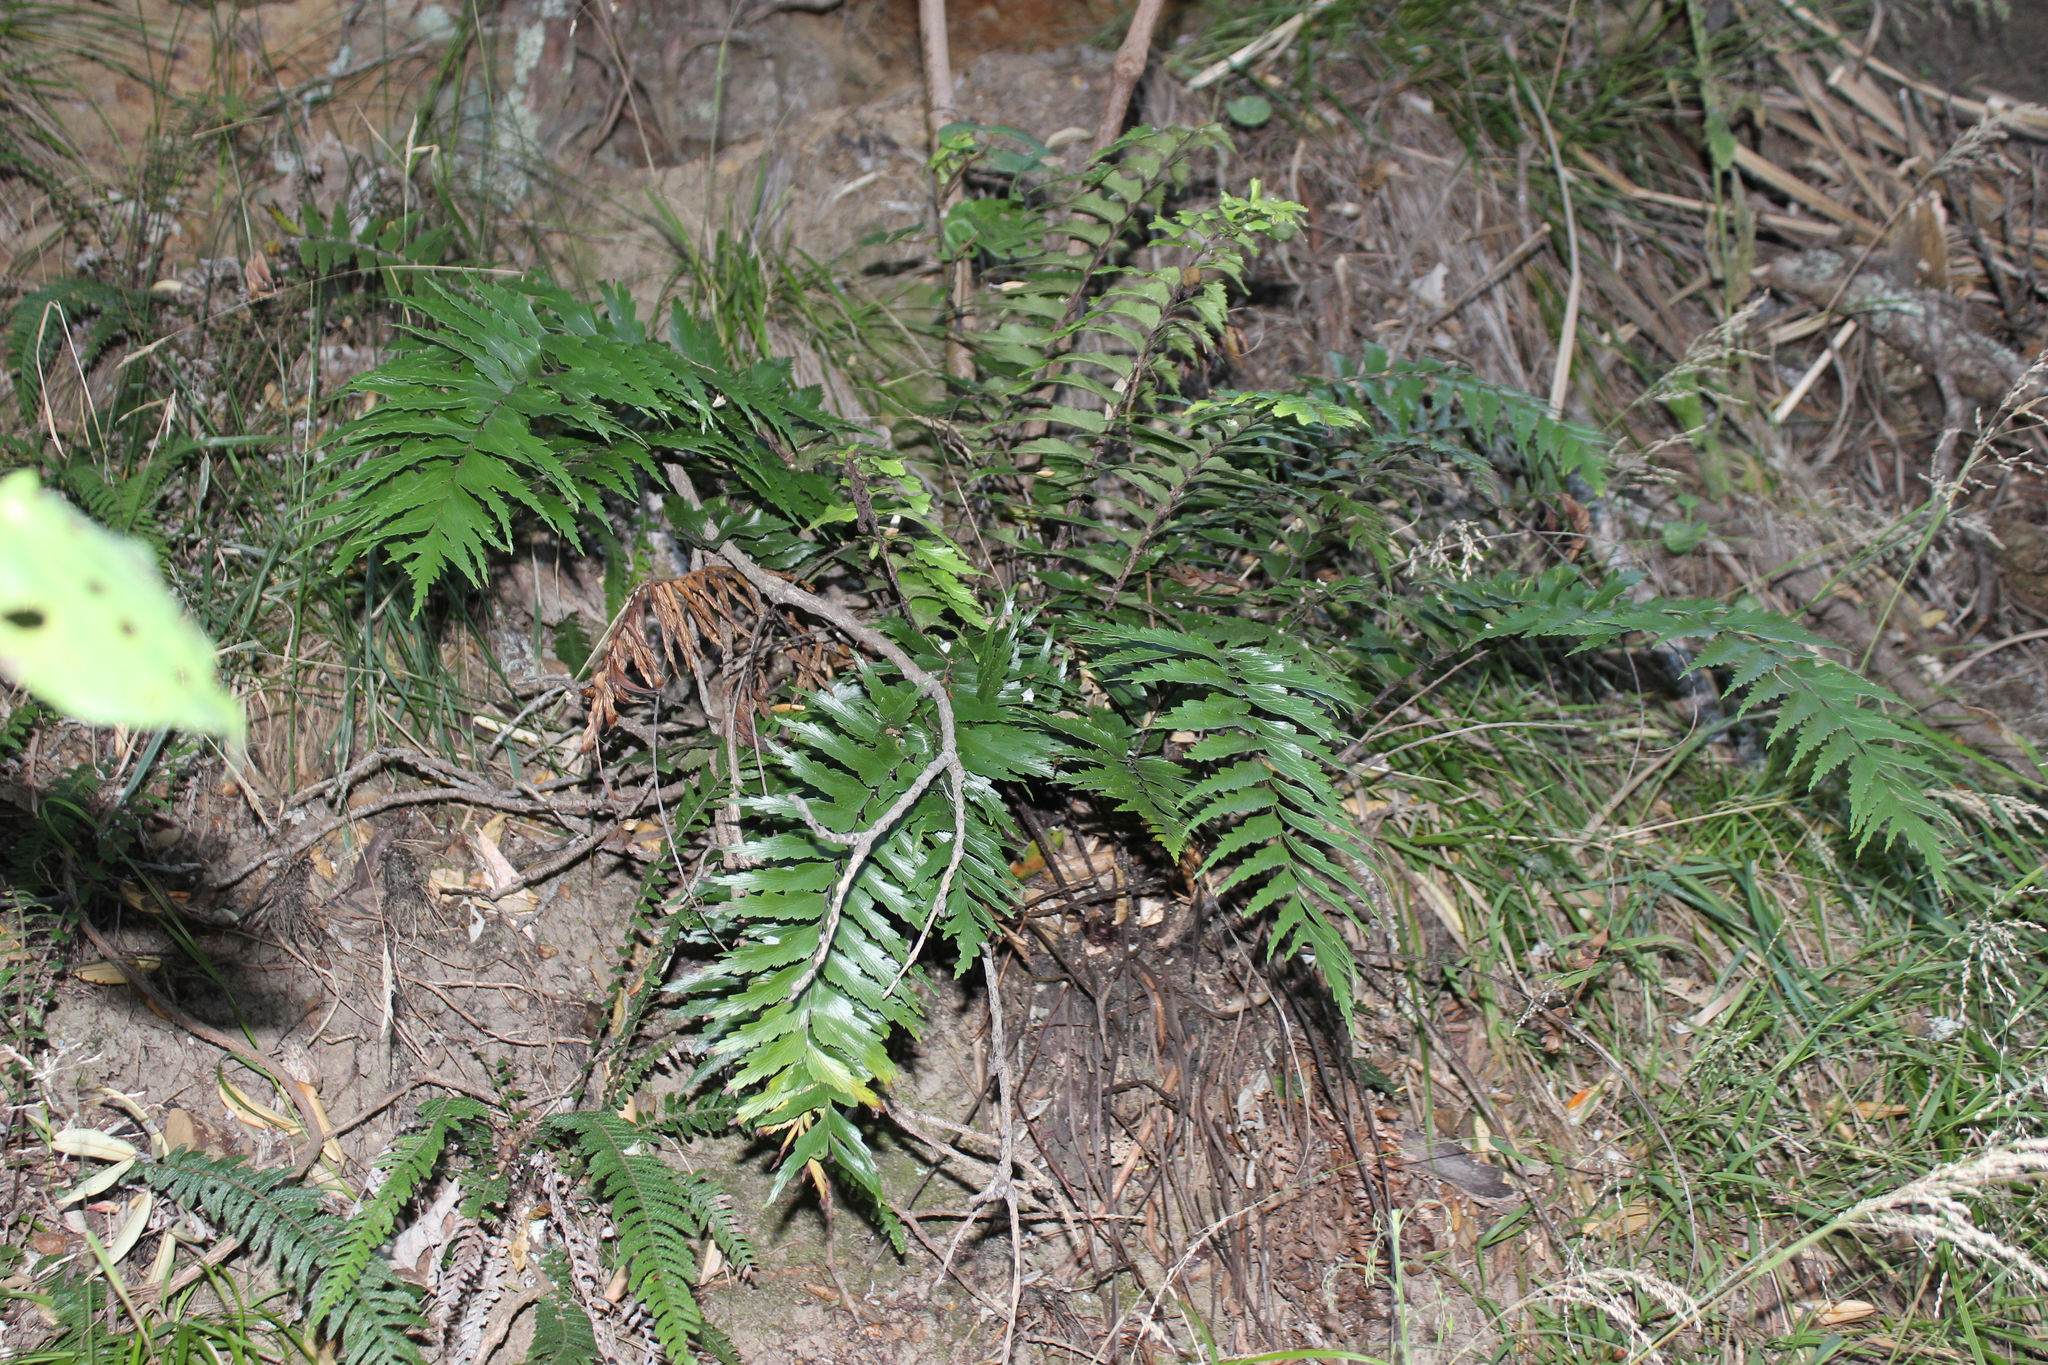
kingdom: Plantae
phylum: Tracheophyta
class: Polypodiopsida
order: Polypodiales
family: Aspleniaceae
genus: Asplenium
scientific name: Asplenium polyodon
